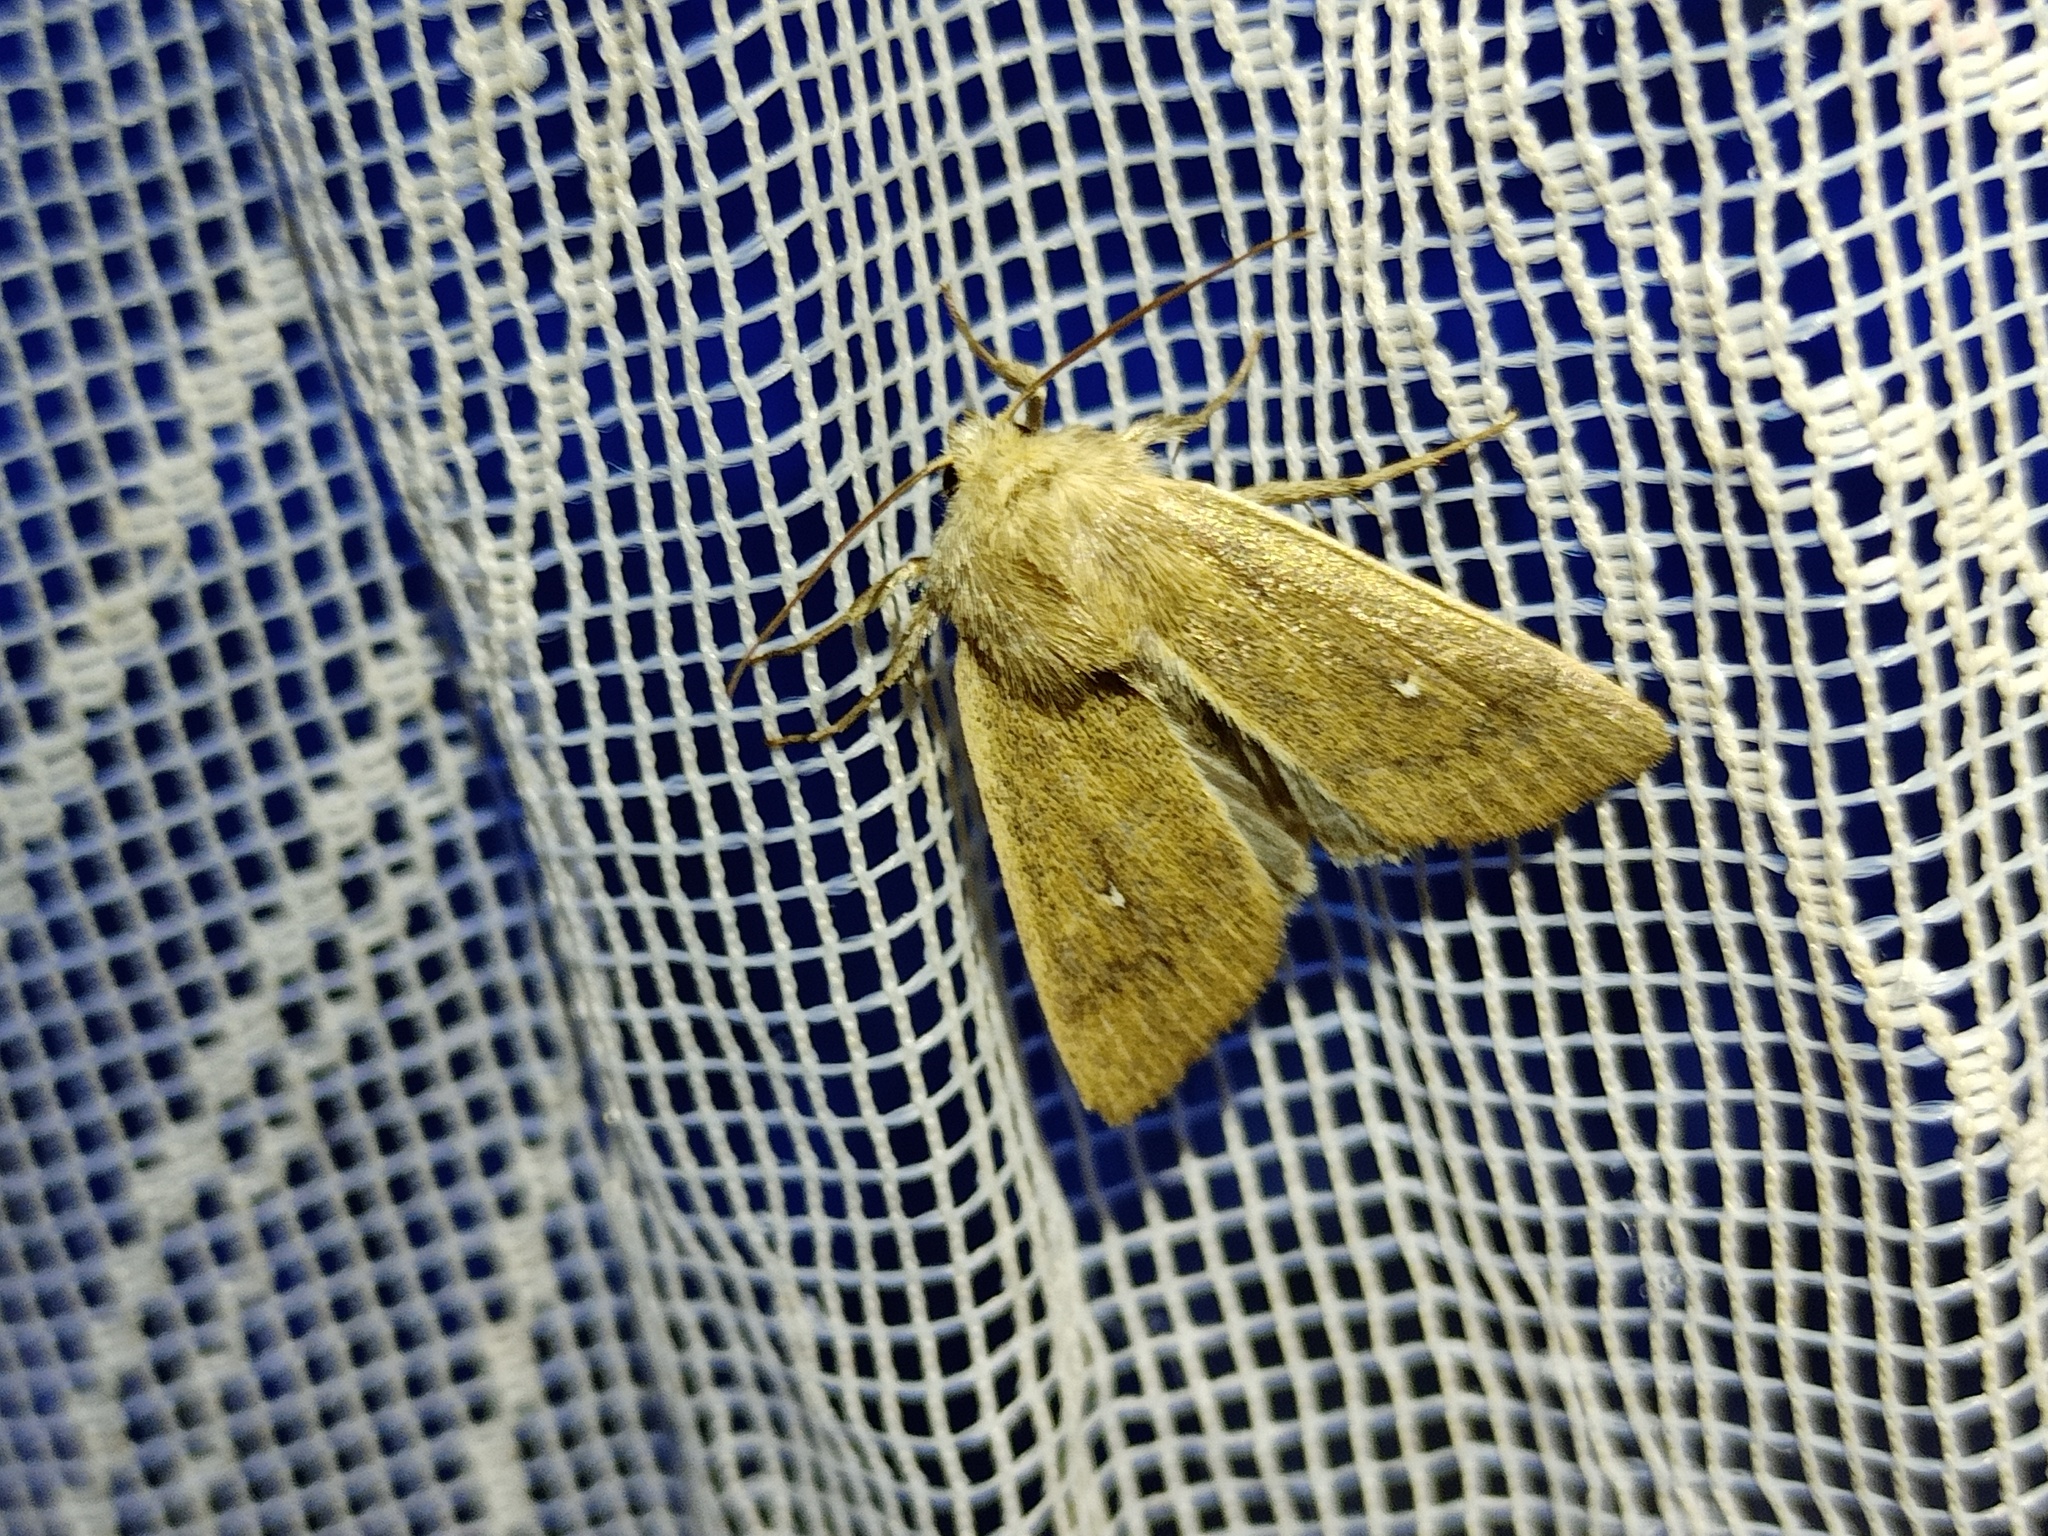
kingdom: Animalia
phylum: Arthropoda
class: Insecta
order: Lepidoptera
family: Noctuidae
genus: Mythimna
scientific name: Mythimna sicula
